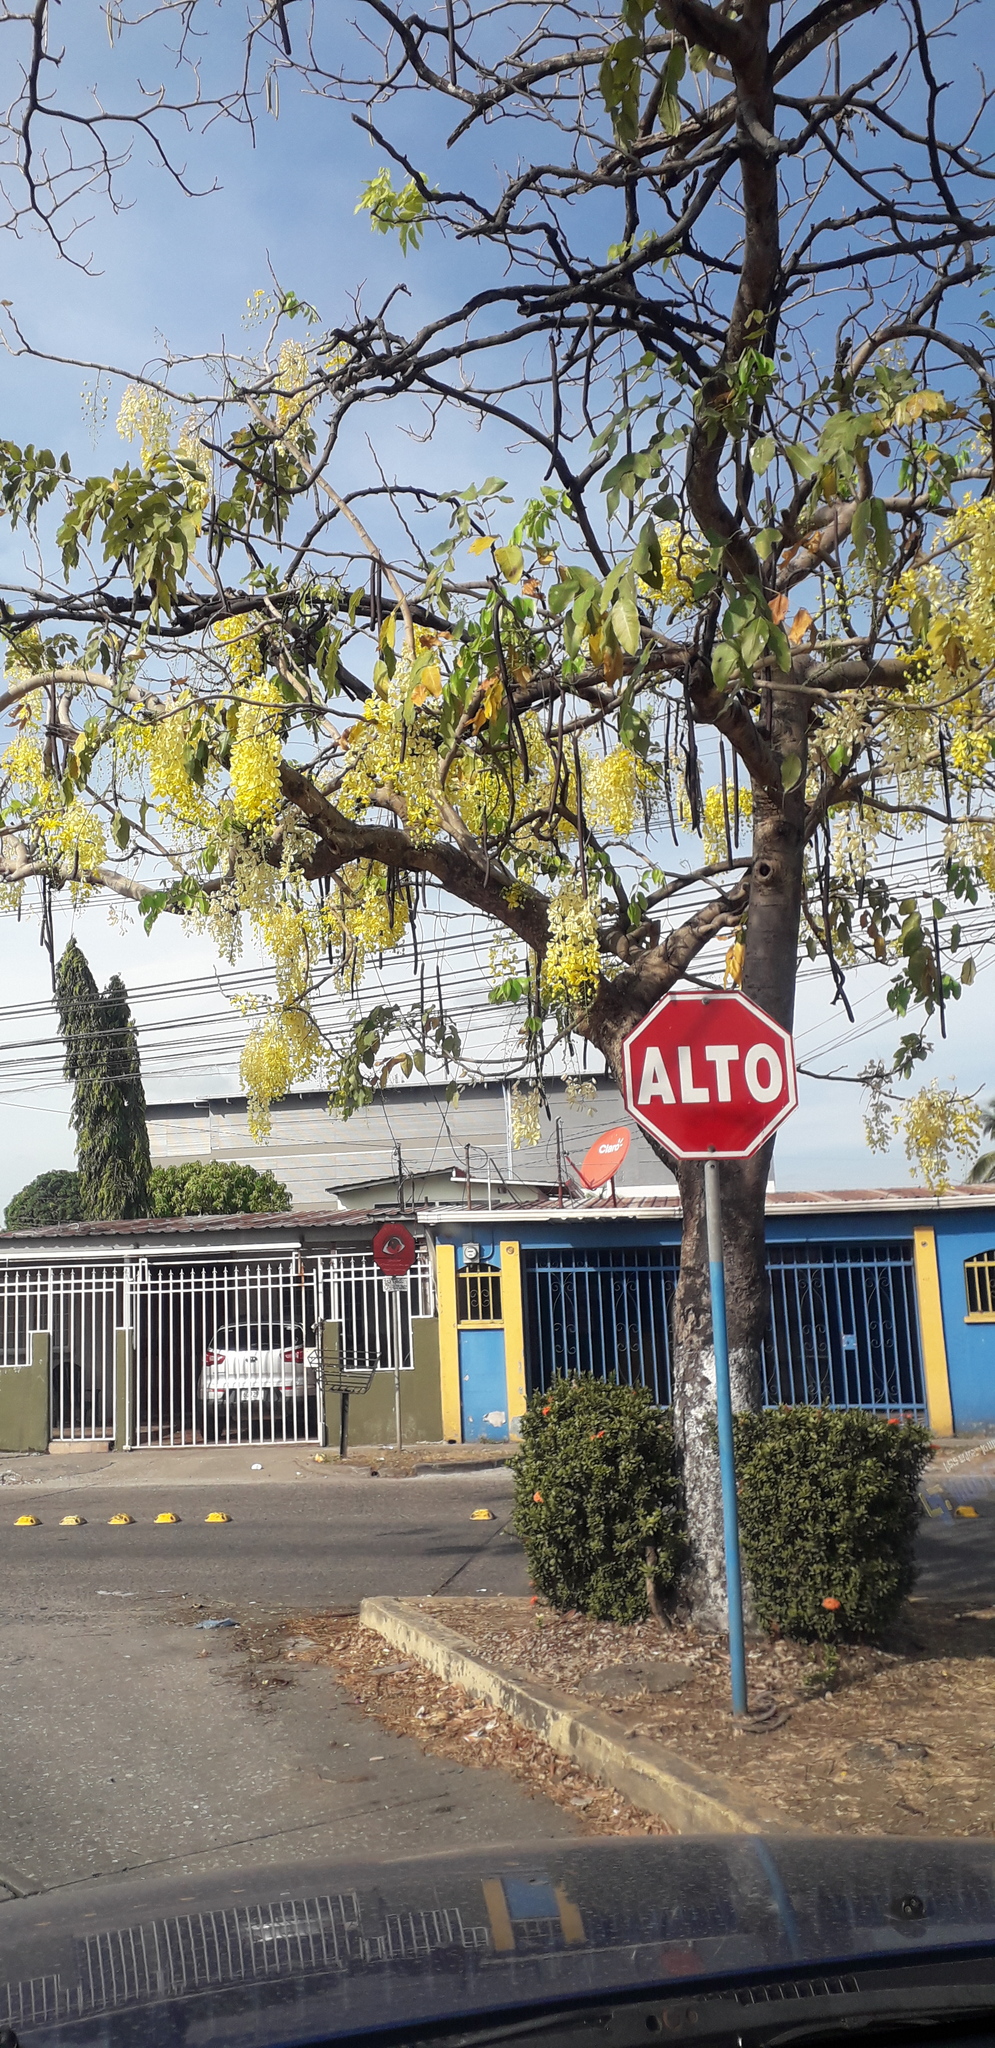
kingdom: Plantae
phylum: Tracheophyta
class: Magnoliopsida
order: Fabales
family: Fabaceae
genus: Cassia
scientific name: Cassia fistula
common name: Golden shower
